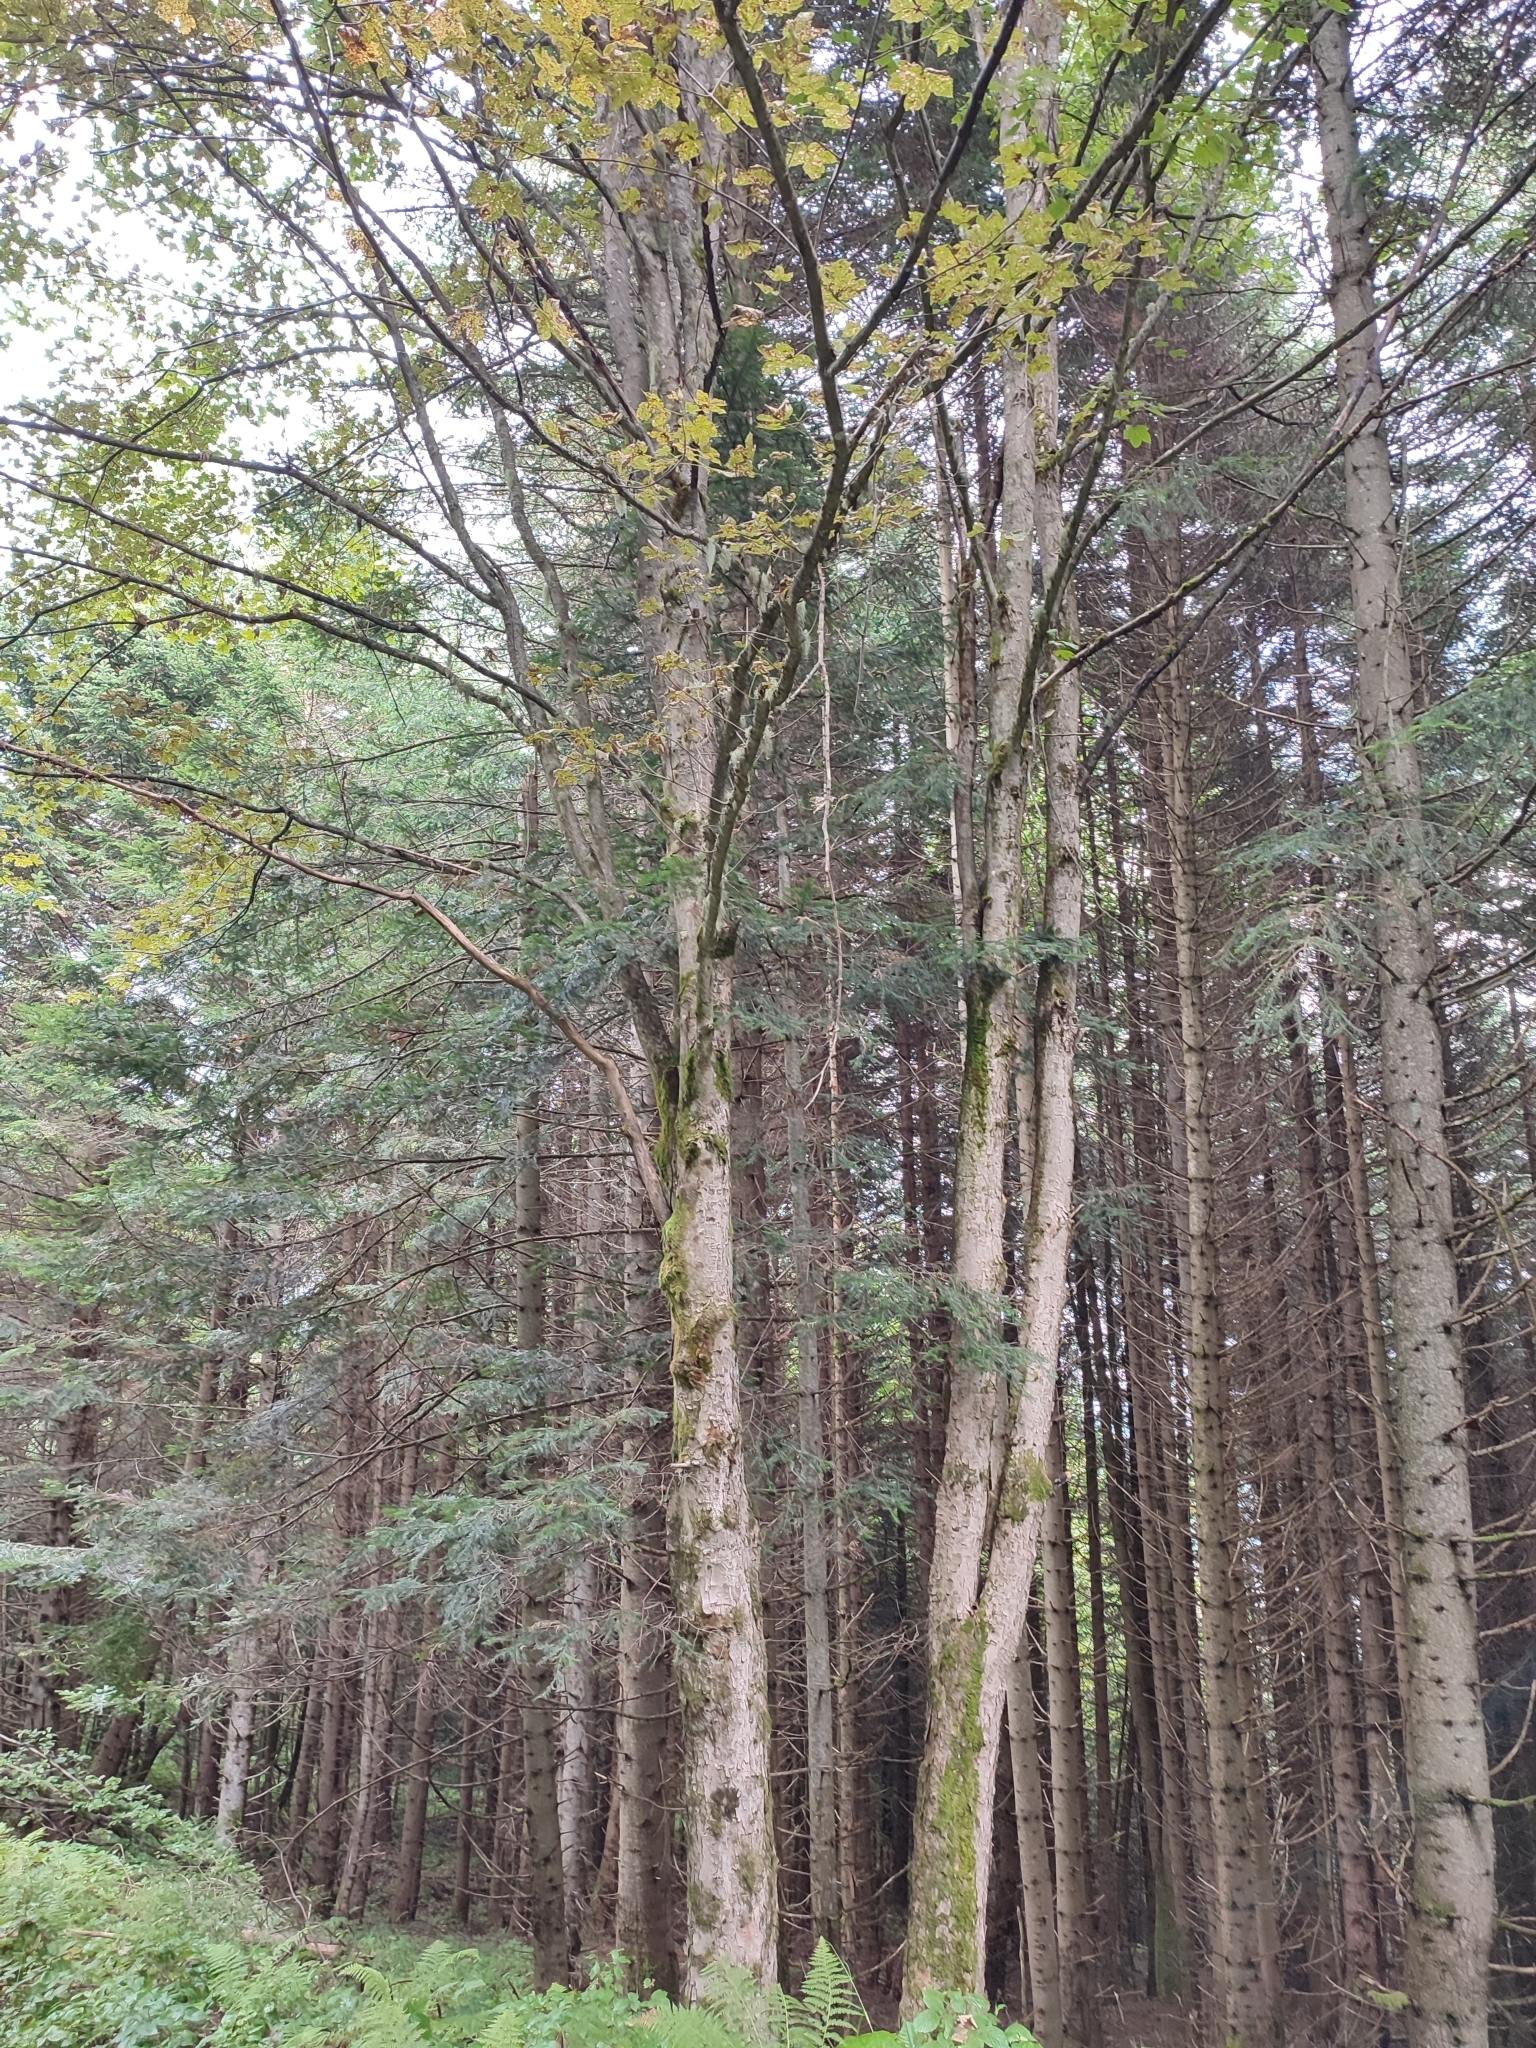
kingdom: Plantae
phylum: Tracheophyta
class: Magnoliopsida
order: Sapindales
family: Sapindaceae
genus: Acer
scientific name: Acer pseudoplatanus
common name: Sycamore
